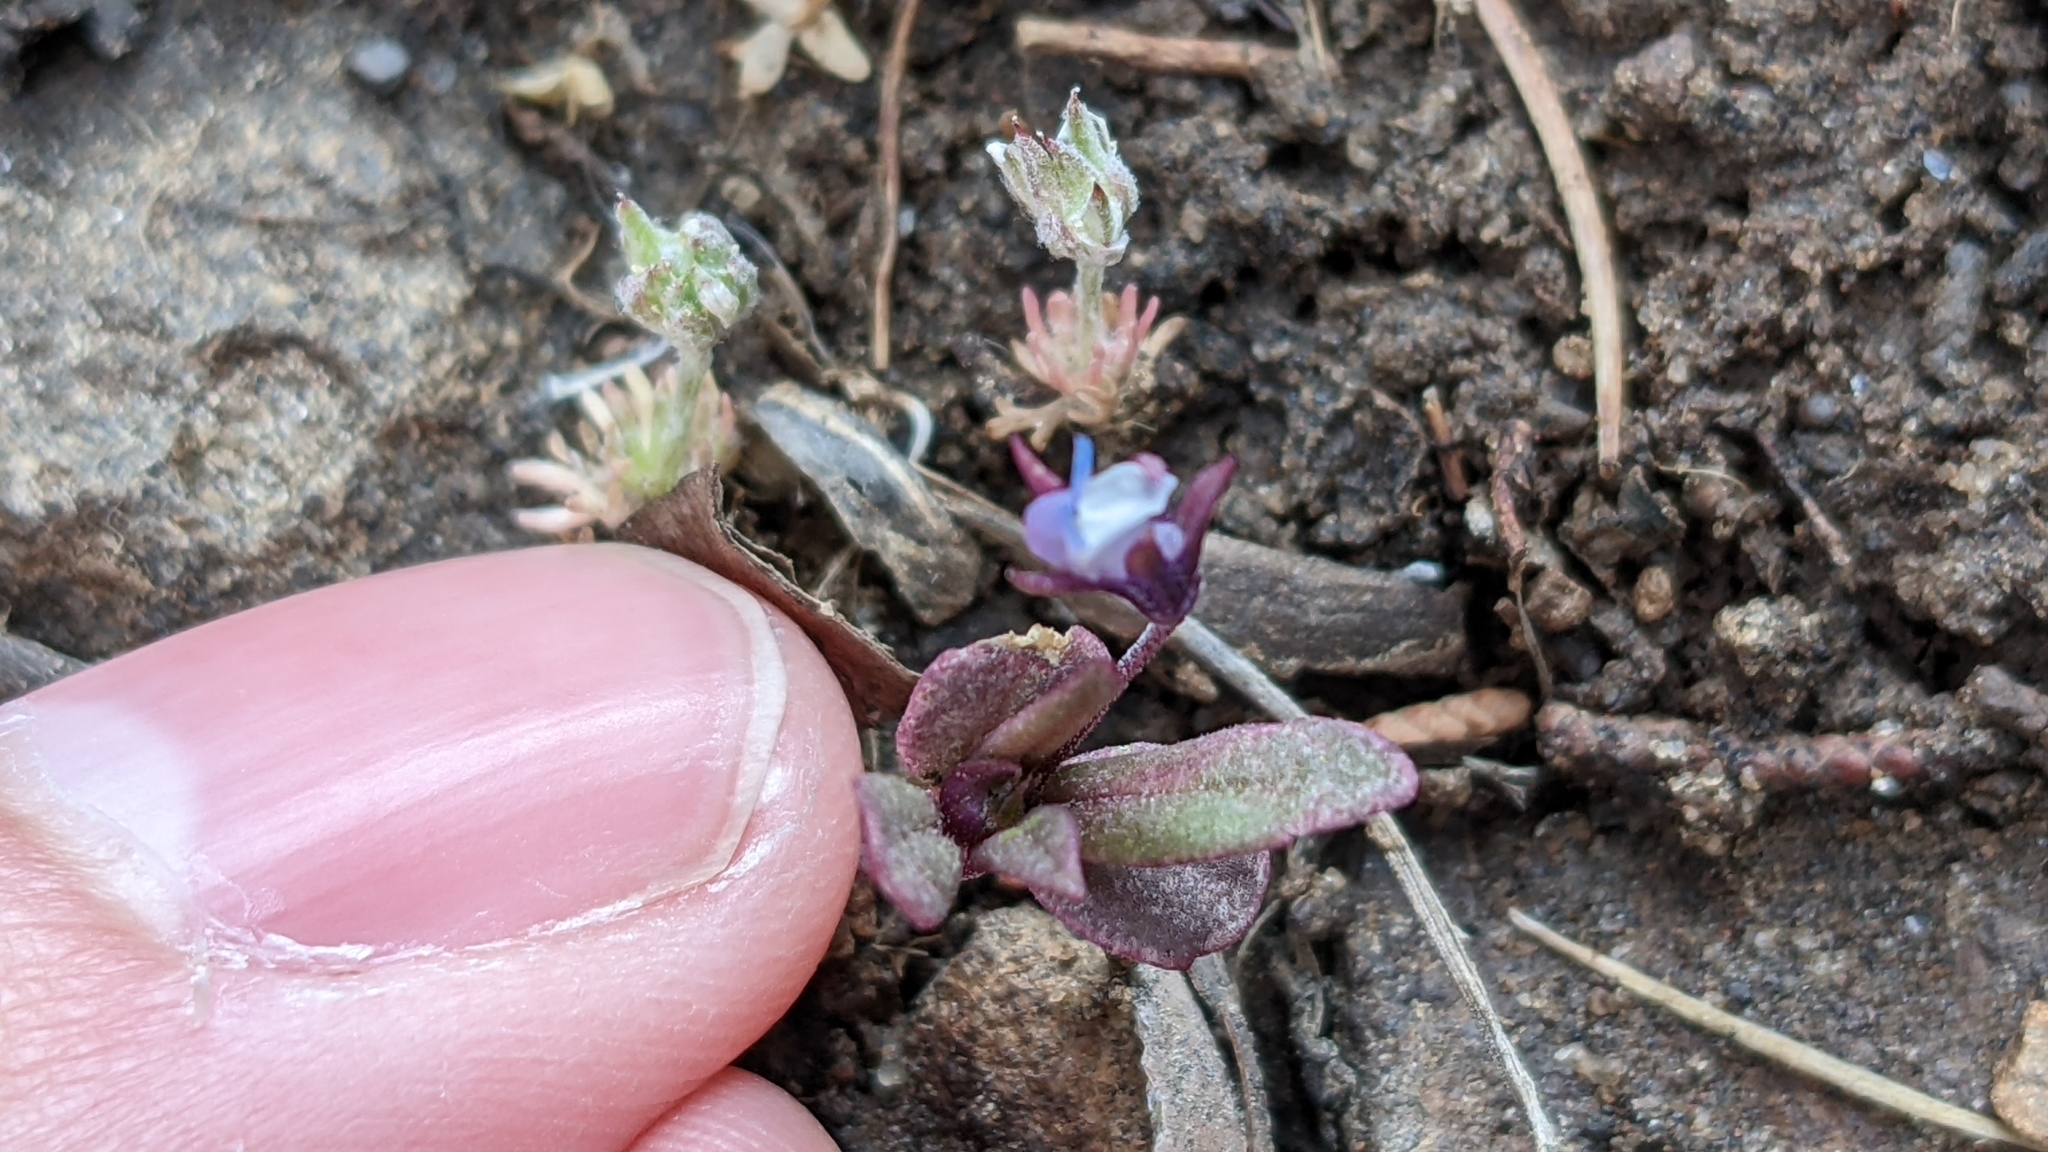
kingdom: Plantae
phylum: Tracheophyta
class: Magnoliopsida
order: Lamiales
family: Plantaginaceae
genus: Collinsia
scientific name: Collinsia parviflora
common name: Blue-lips
